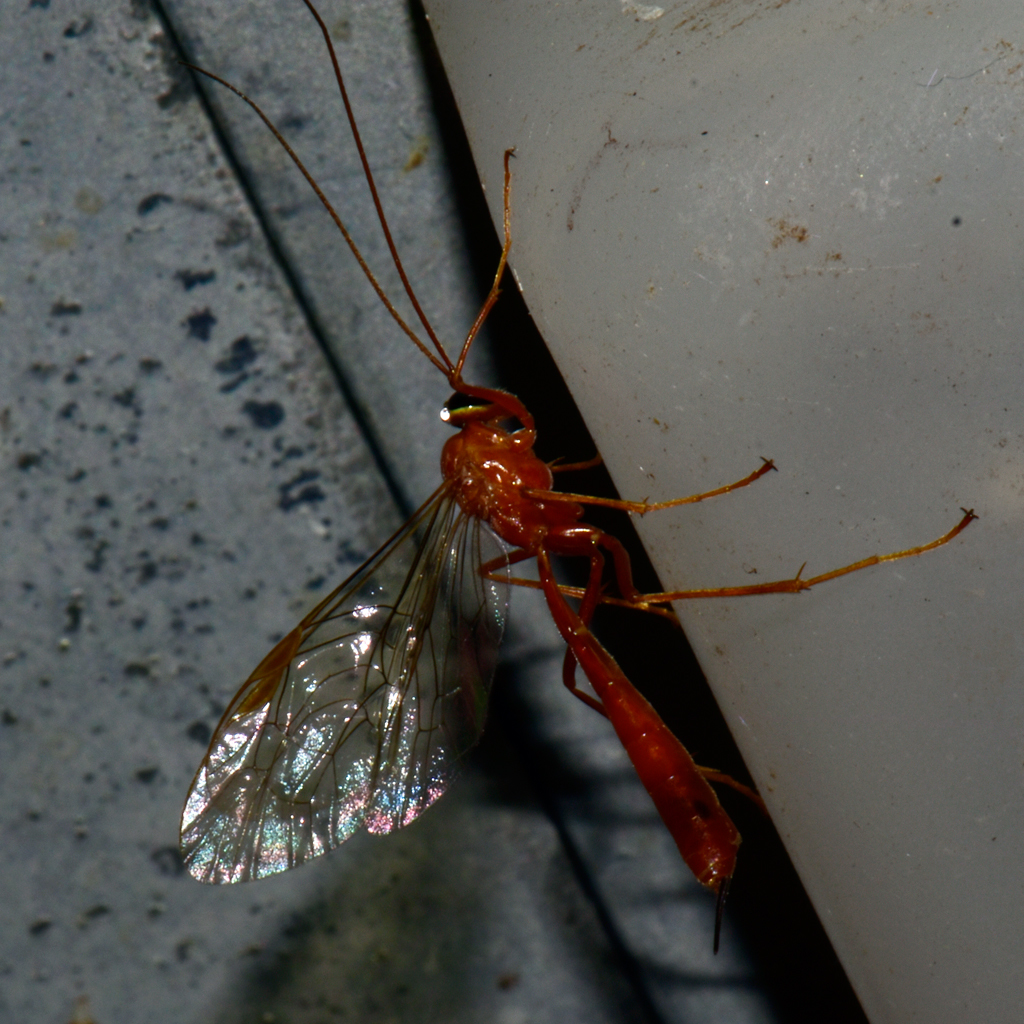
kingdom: Animalia
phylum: Arthropoda
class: Insecta
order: Hymenoptera
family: Ichneumonidae
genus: Netelia
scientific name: Netelia
